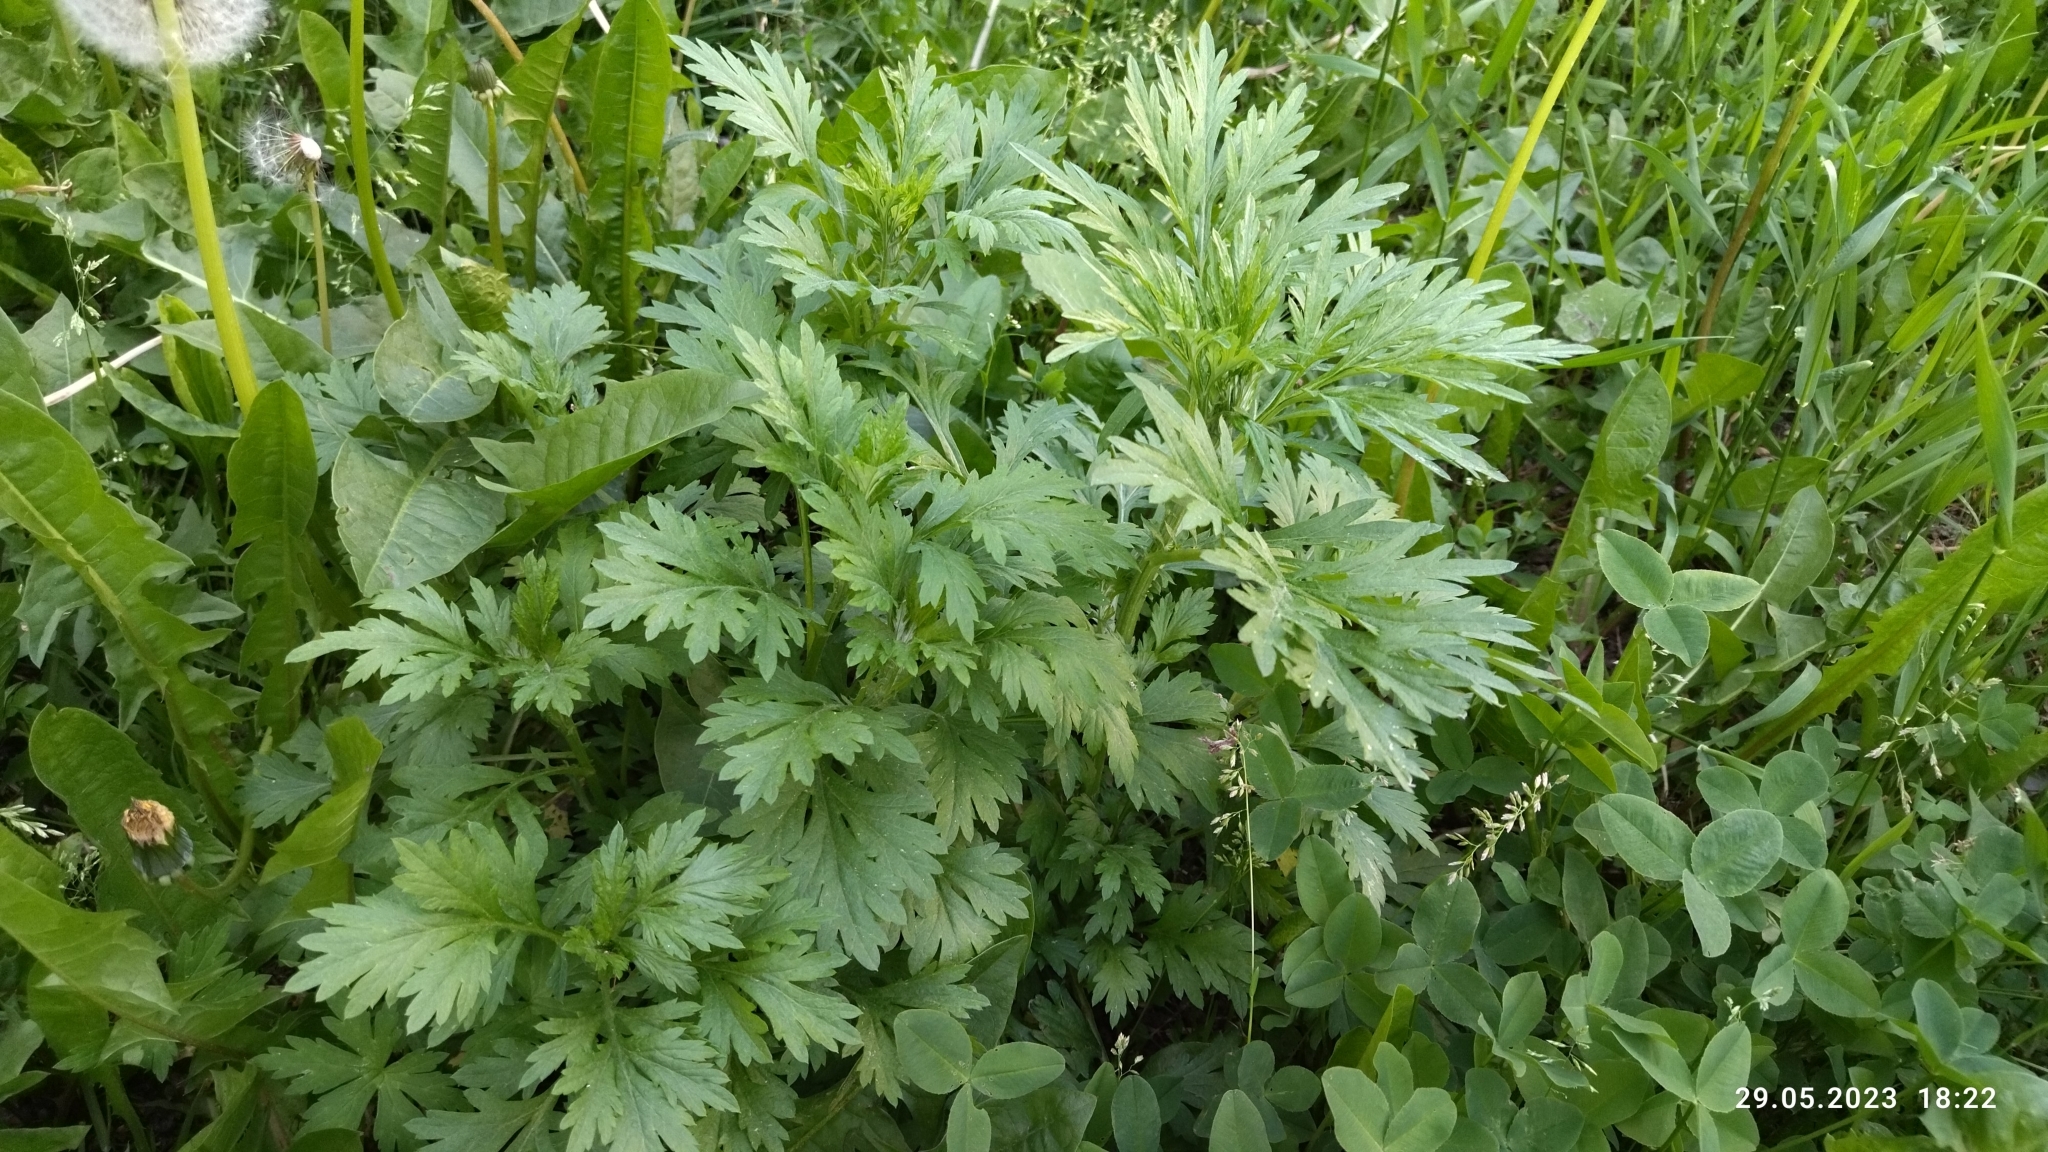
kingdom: Plantae
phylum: Tracheophyta
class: Magnoliopsida
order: Asterales
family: Asteraceae
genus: Artemisia
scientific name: Artemisia vulgaris
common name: Mugwort
